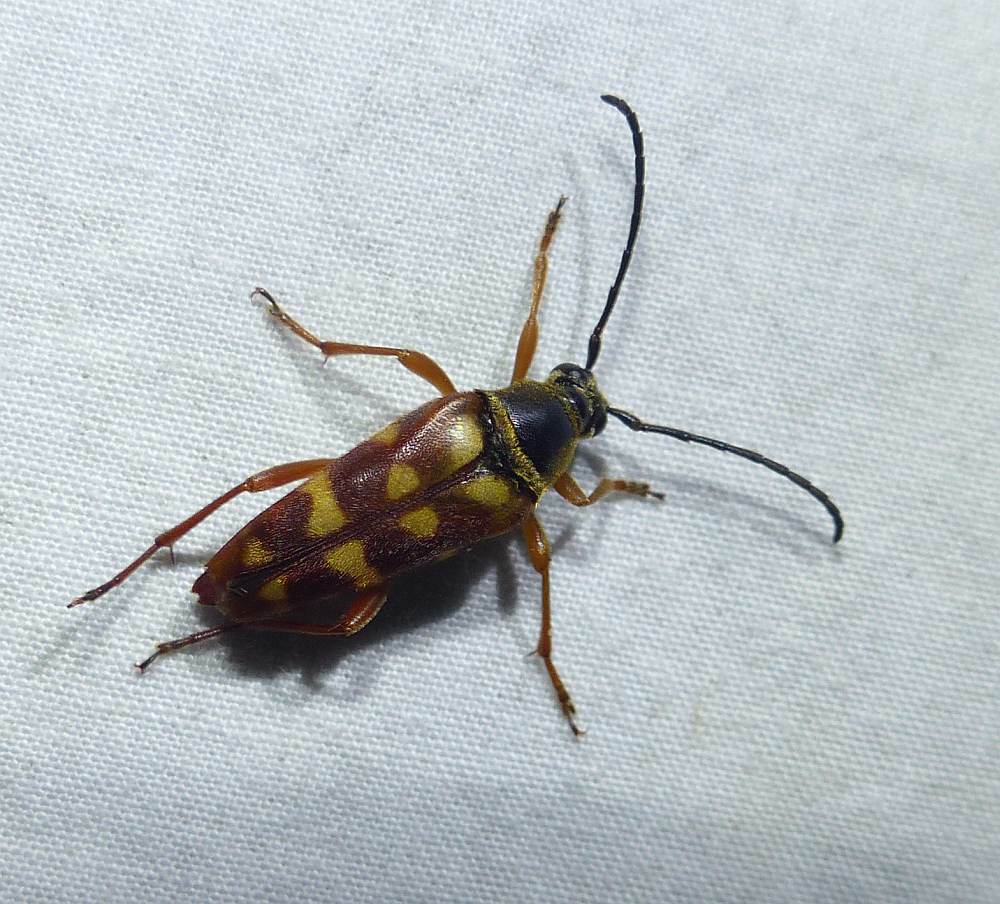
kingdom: Animalia
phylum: Arthropoda
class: Insecta
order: Coleoptera
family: Cerambycidae
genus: Typocerus
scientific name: Typocerus velutinus
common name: Banded longhorn beetle
